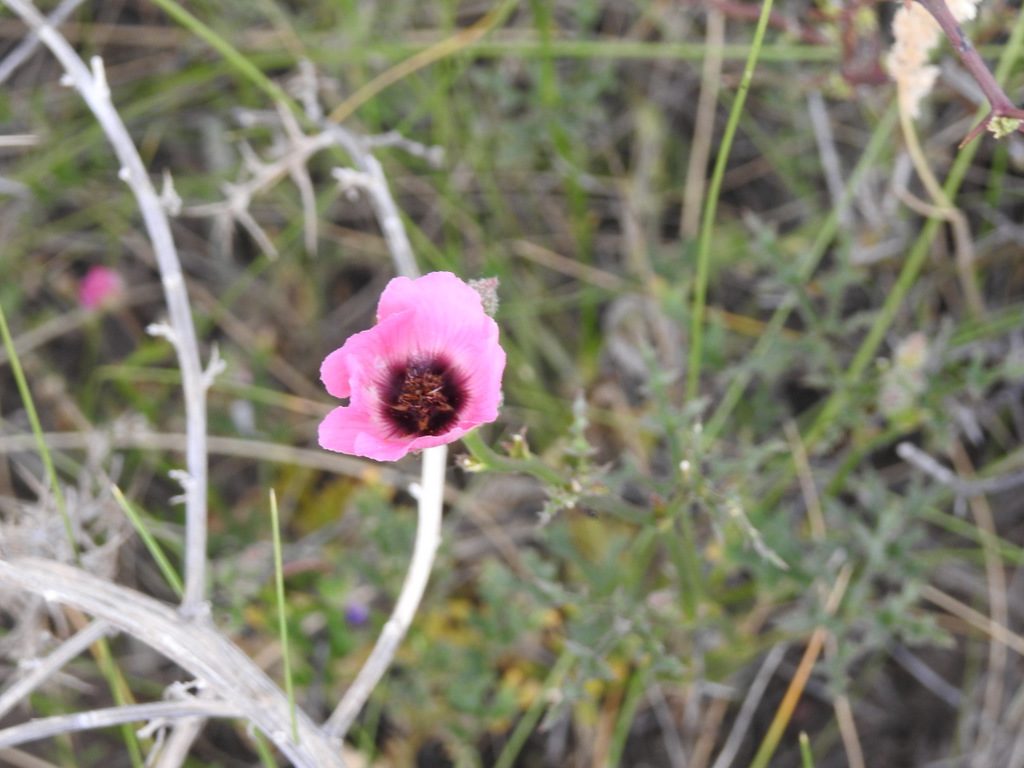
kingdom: Plantae
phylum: Tracheophyta
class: Magnoliopsida
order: Malvales
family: Malvaceae
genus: Lecanophora
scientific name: Lecanophora heterophylla
